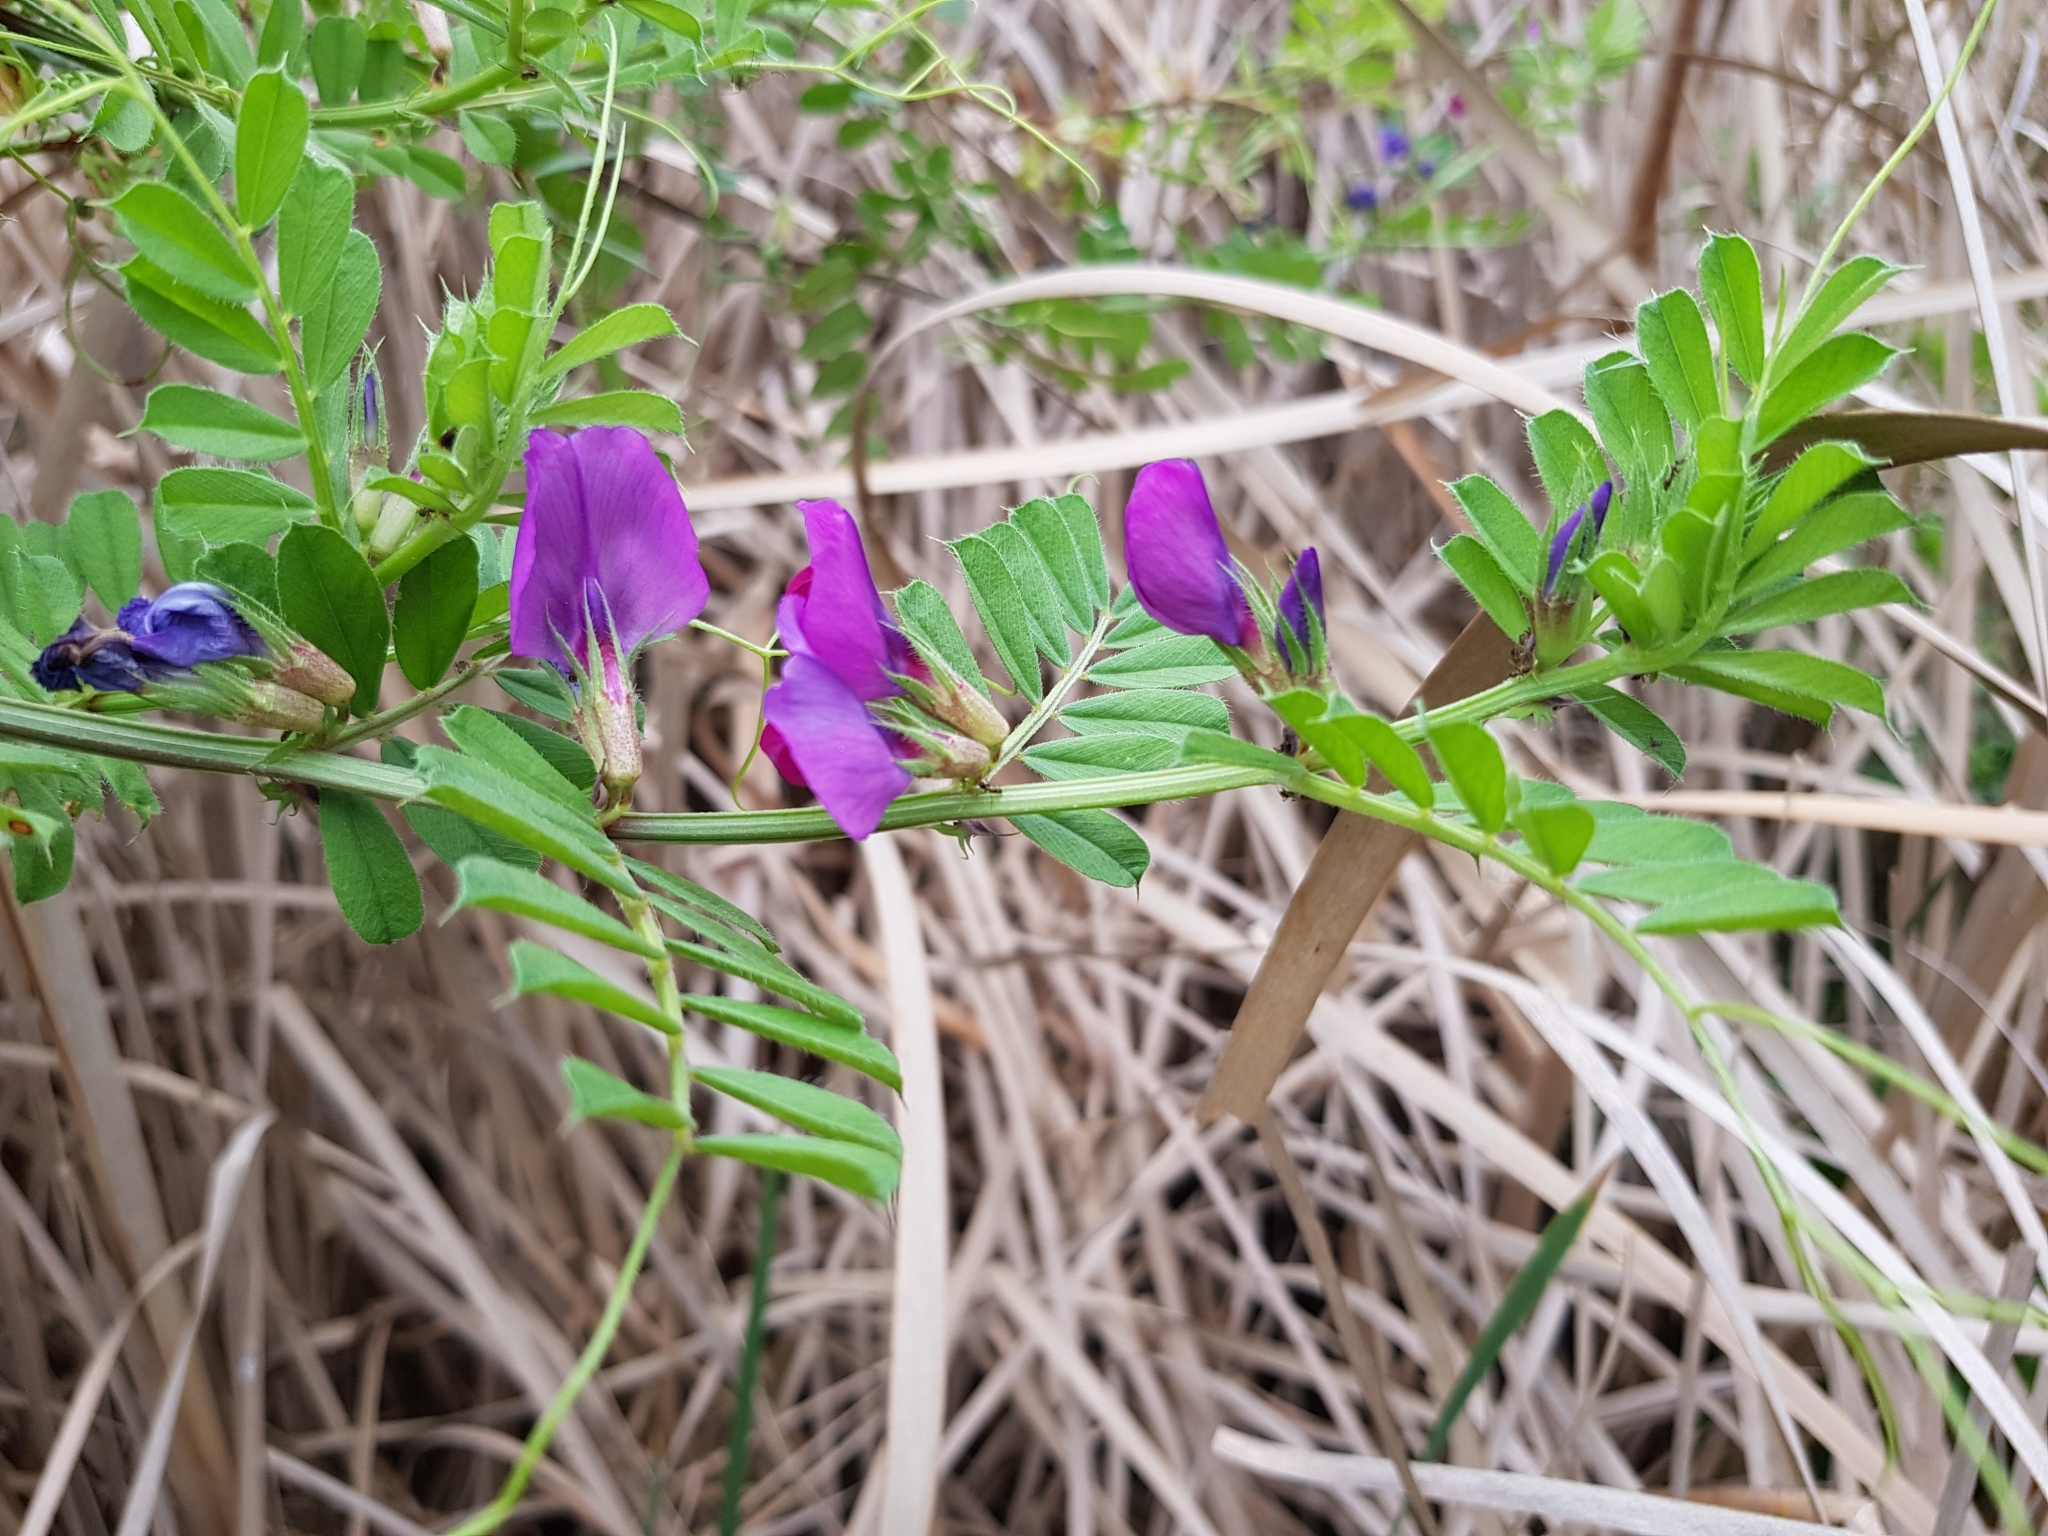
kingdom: Plantae
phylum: Tracheophyta
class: Magnoliopsida
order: Fabales
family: Fabaceae
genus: Vicia
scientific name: Vicia sativa
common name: Garden vetch
